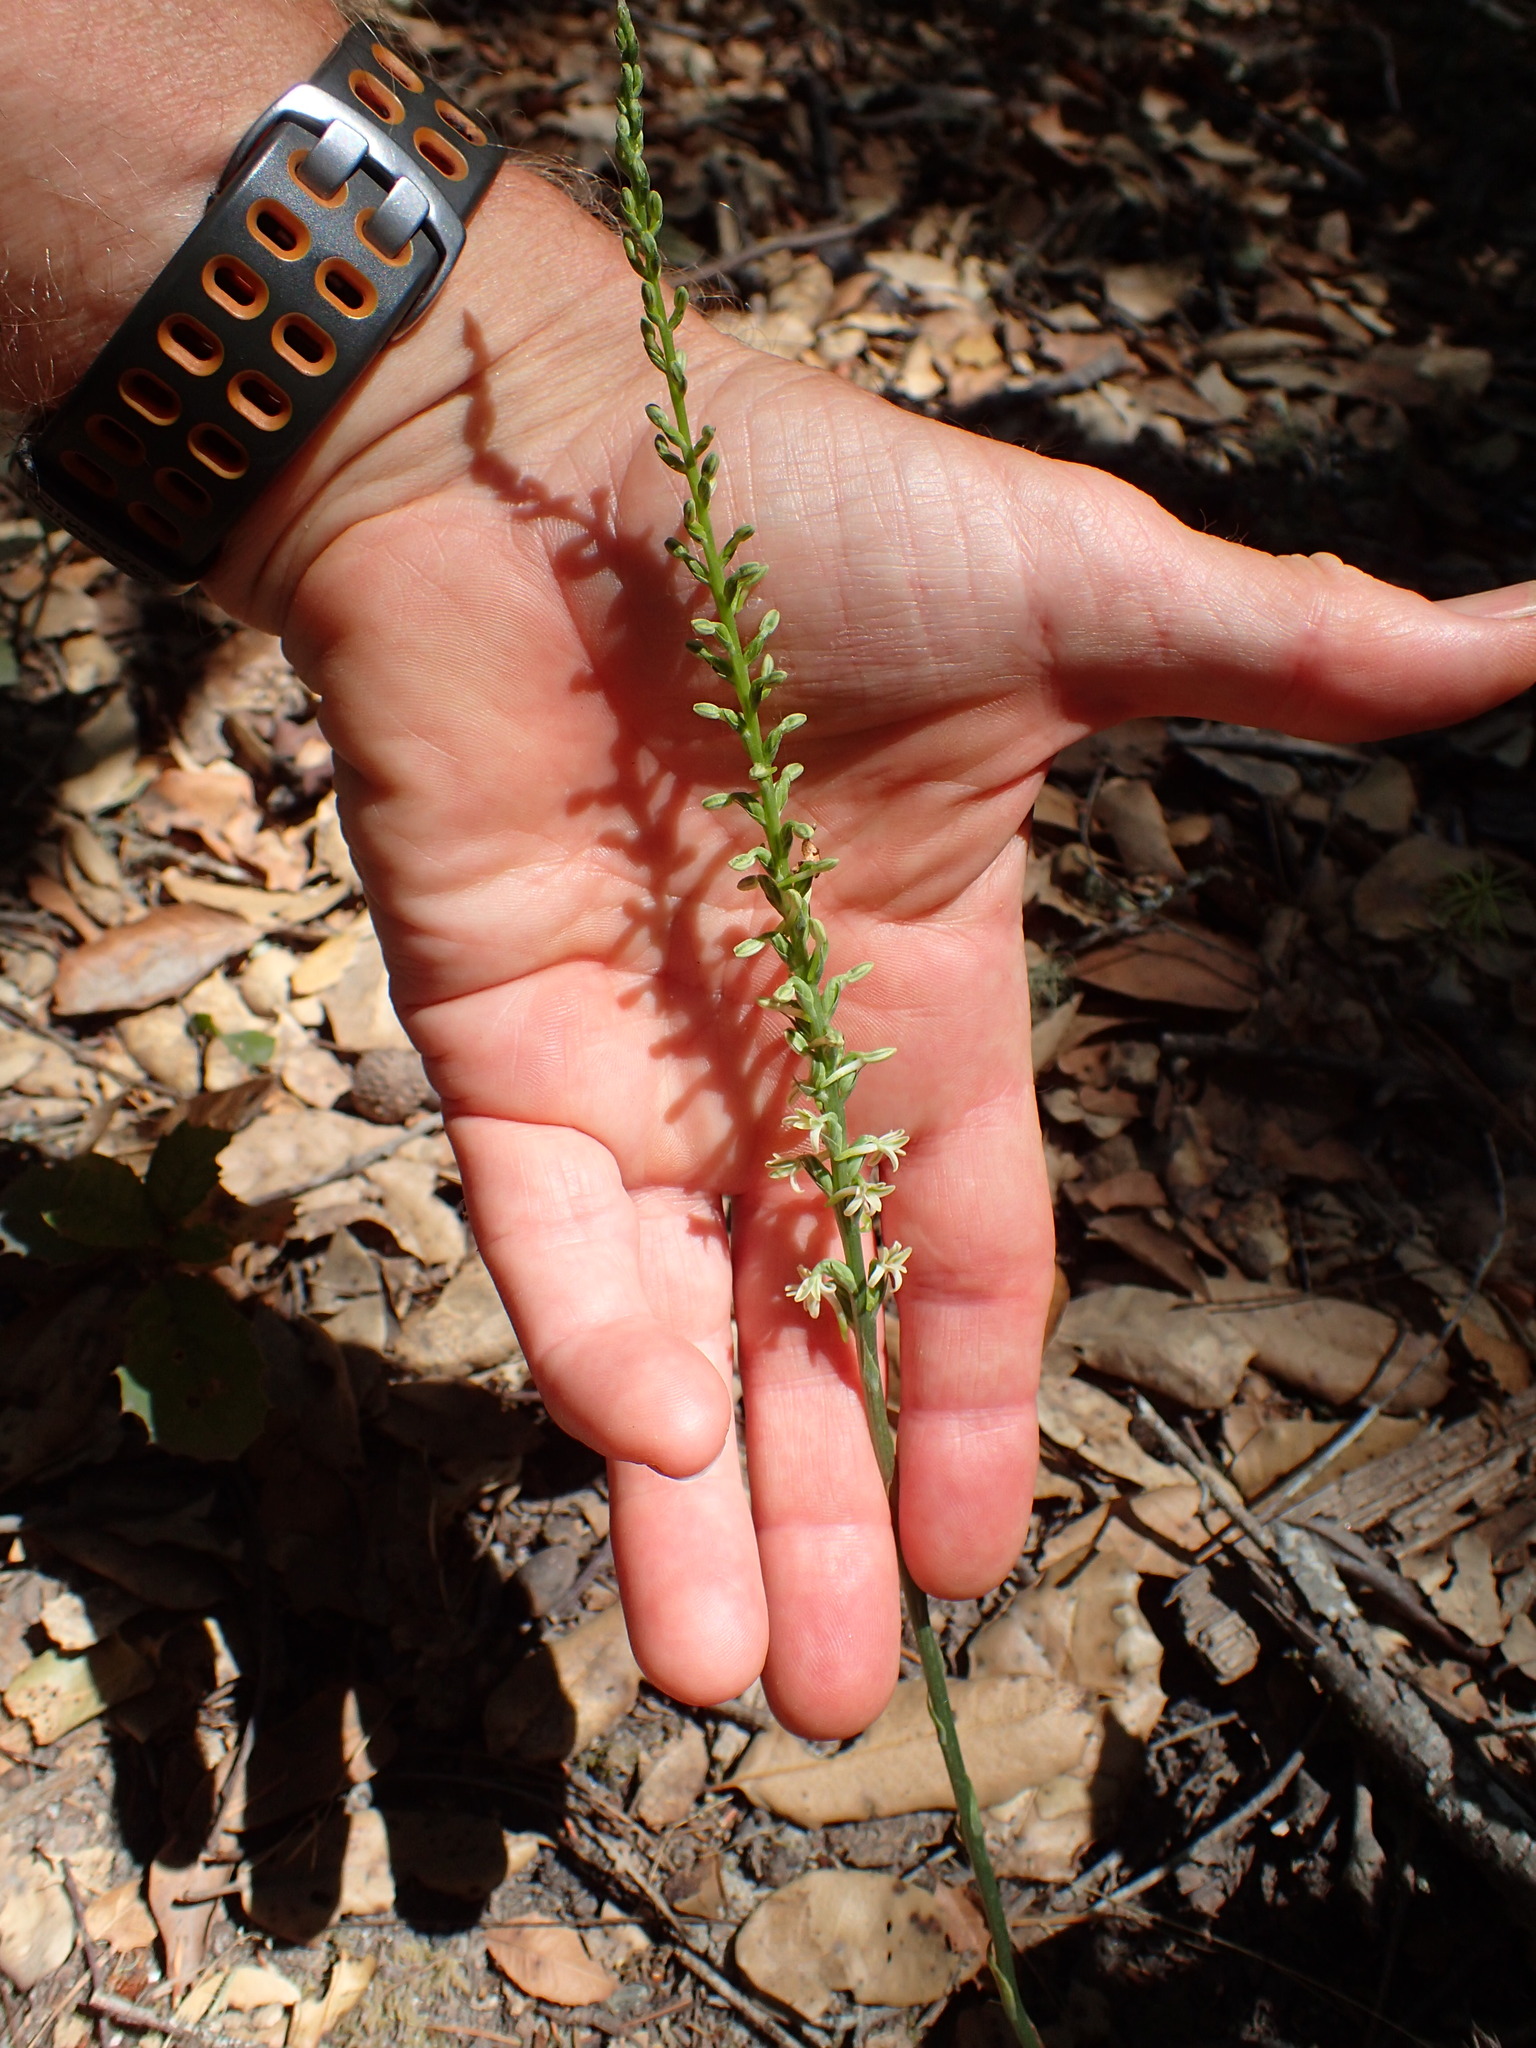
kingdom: Plantae
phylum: Tracheophyta
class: Liliopsida
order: Asparagales
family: Orchidaceae
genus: Platanthera
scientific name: Platanthera transversa
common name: Royal rein orchid
